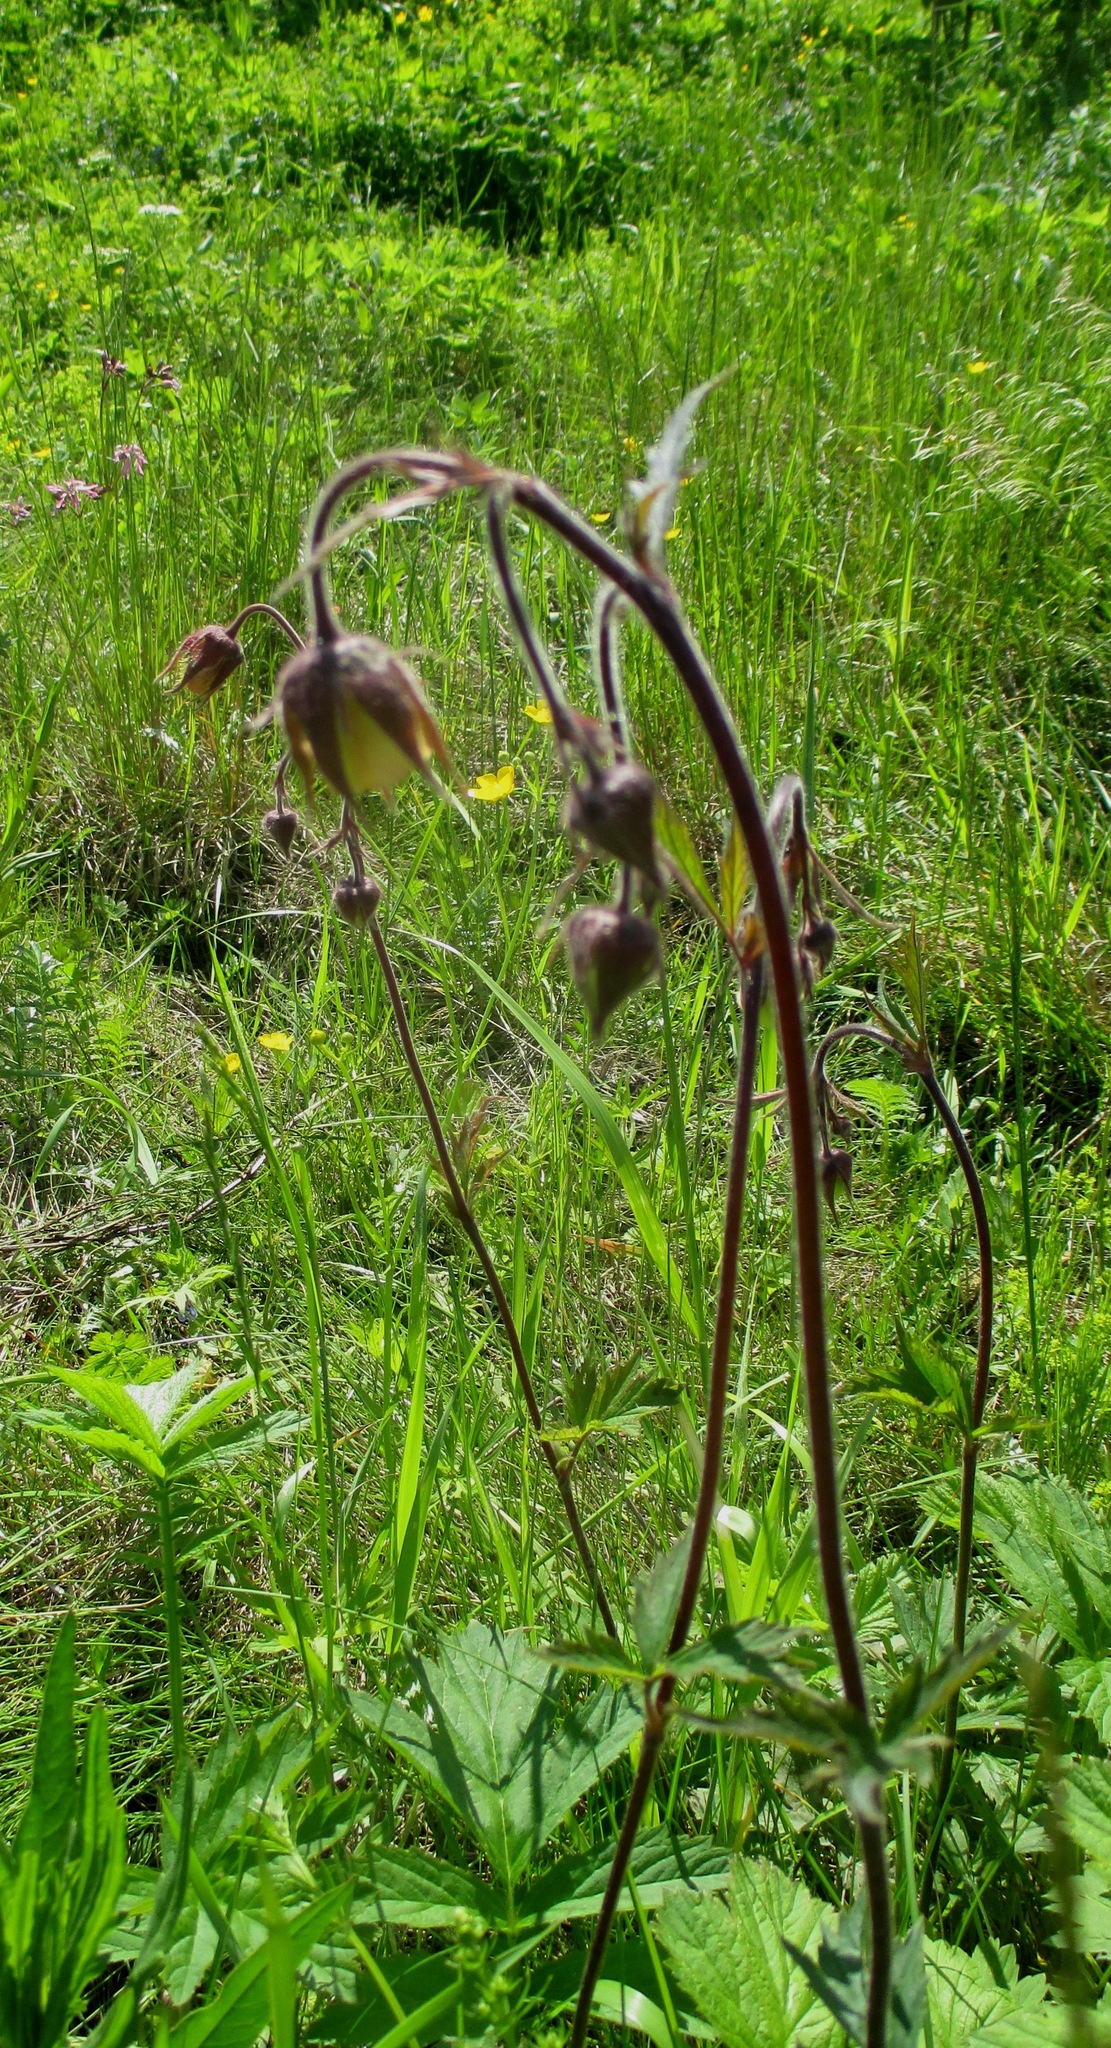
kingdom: Plantae
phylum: Tracheophyta
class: Magnoliopsida
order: Rosales
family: Rosaceae
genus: Geum
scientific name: Geum rivale
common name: Water avens
